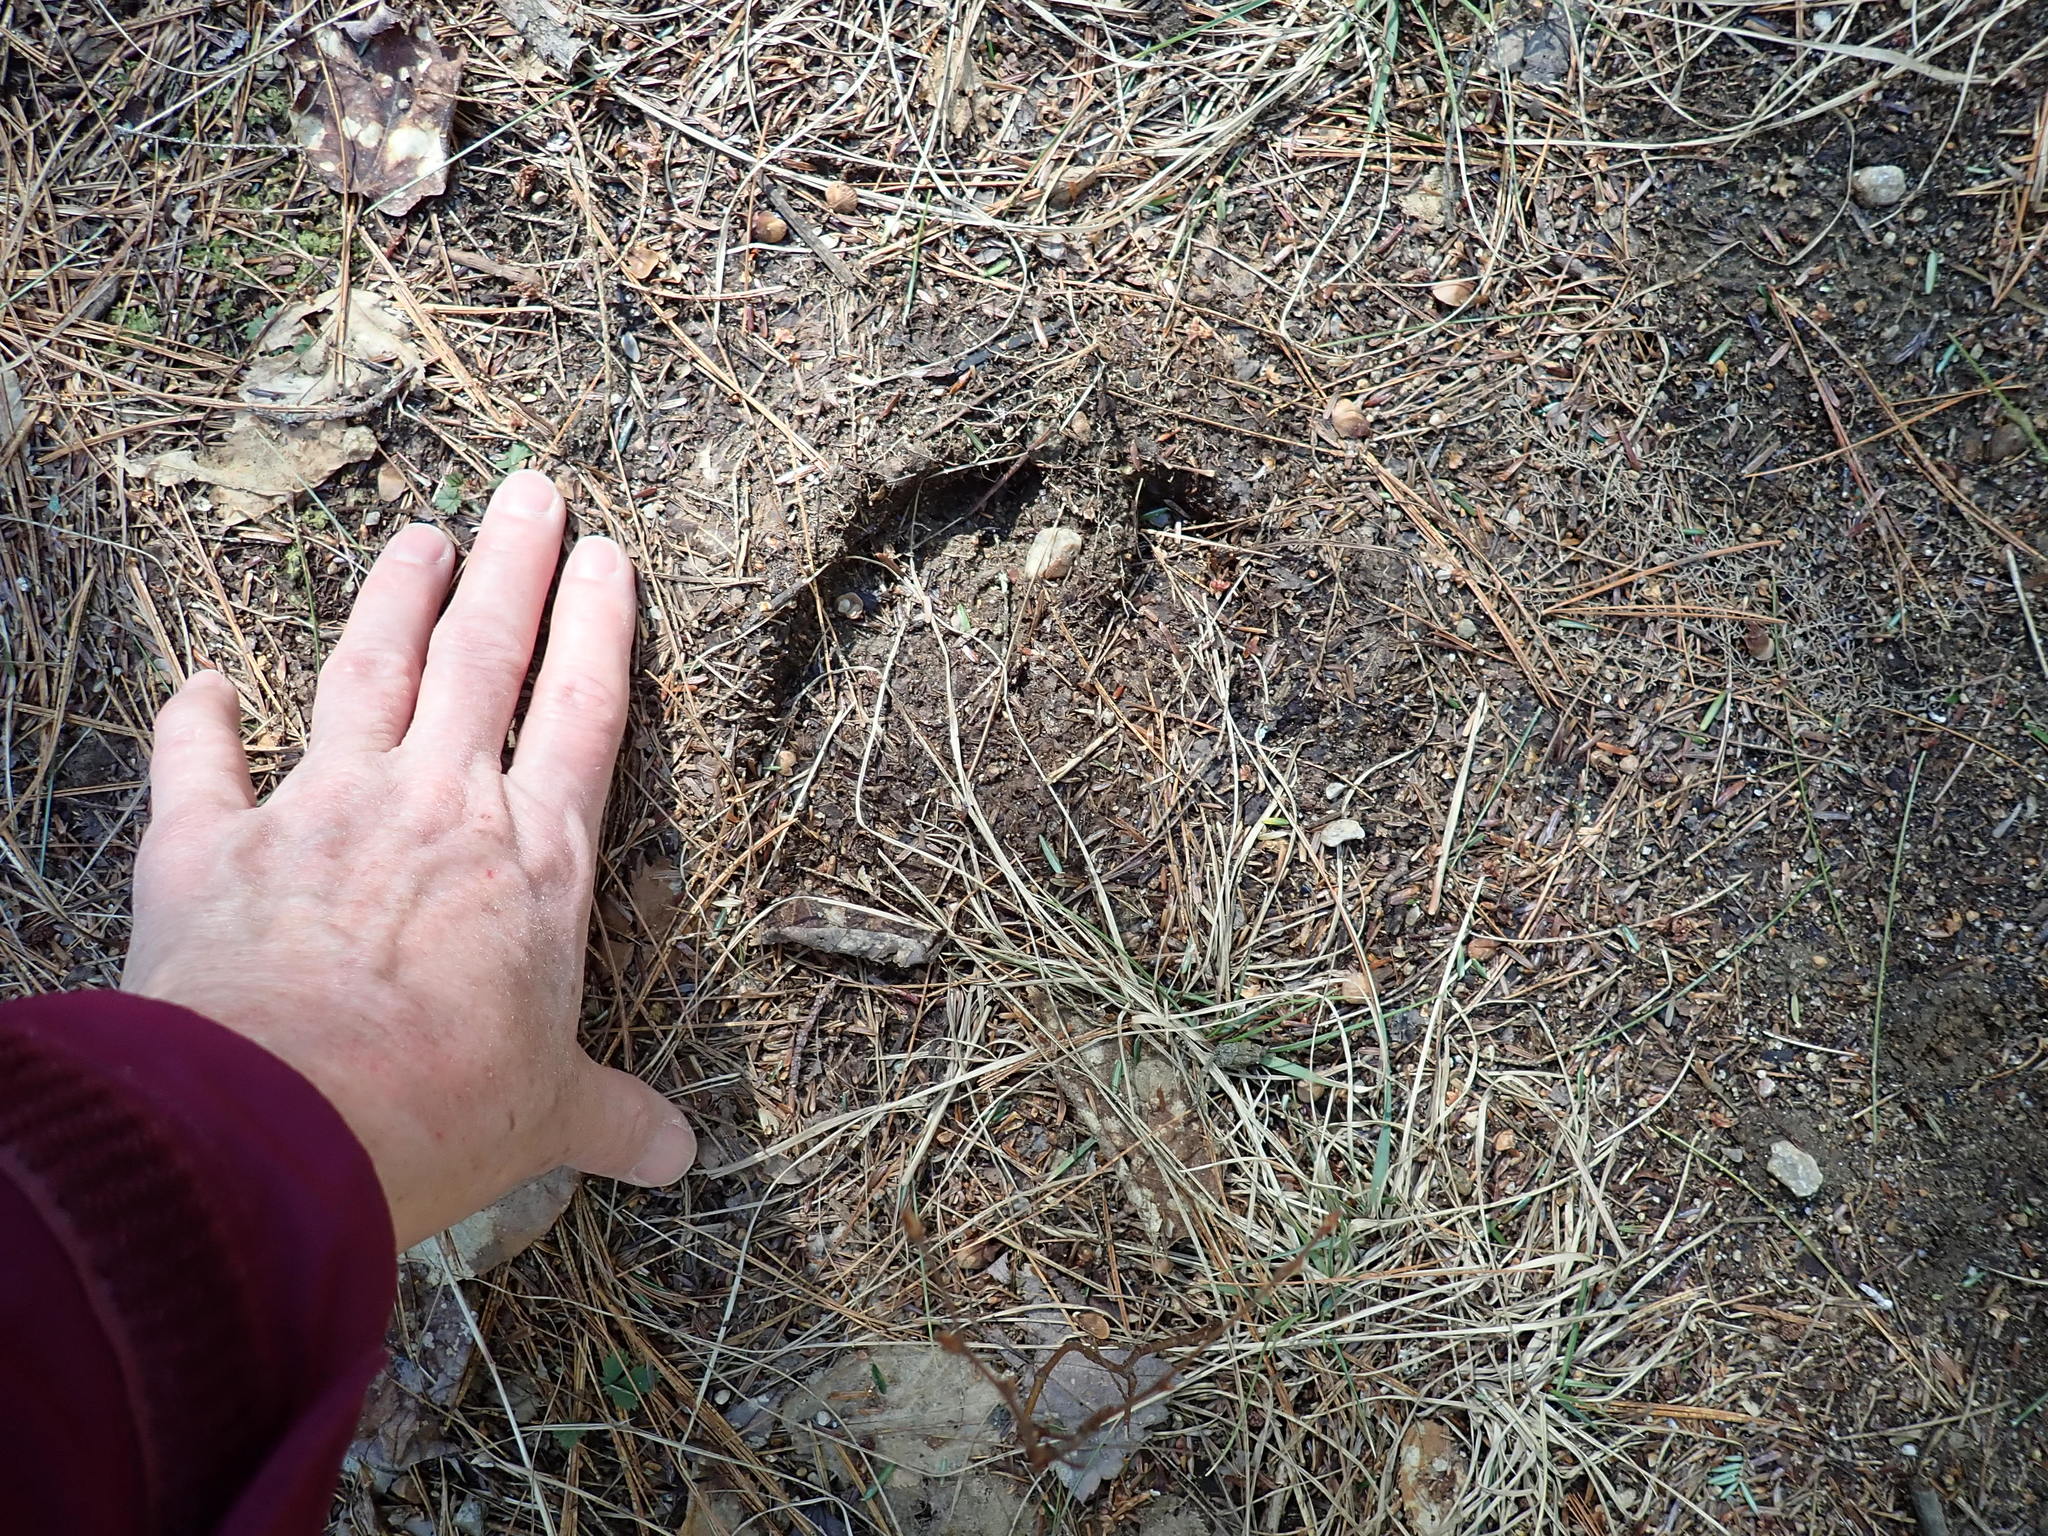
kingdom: Animalia
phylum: Chordata
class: Mammalia
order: Artiodactyla
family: Cervidae
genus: Alces
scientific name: Alces alces
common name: Moose
